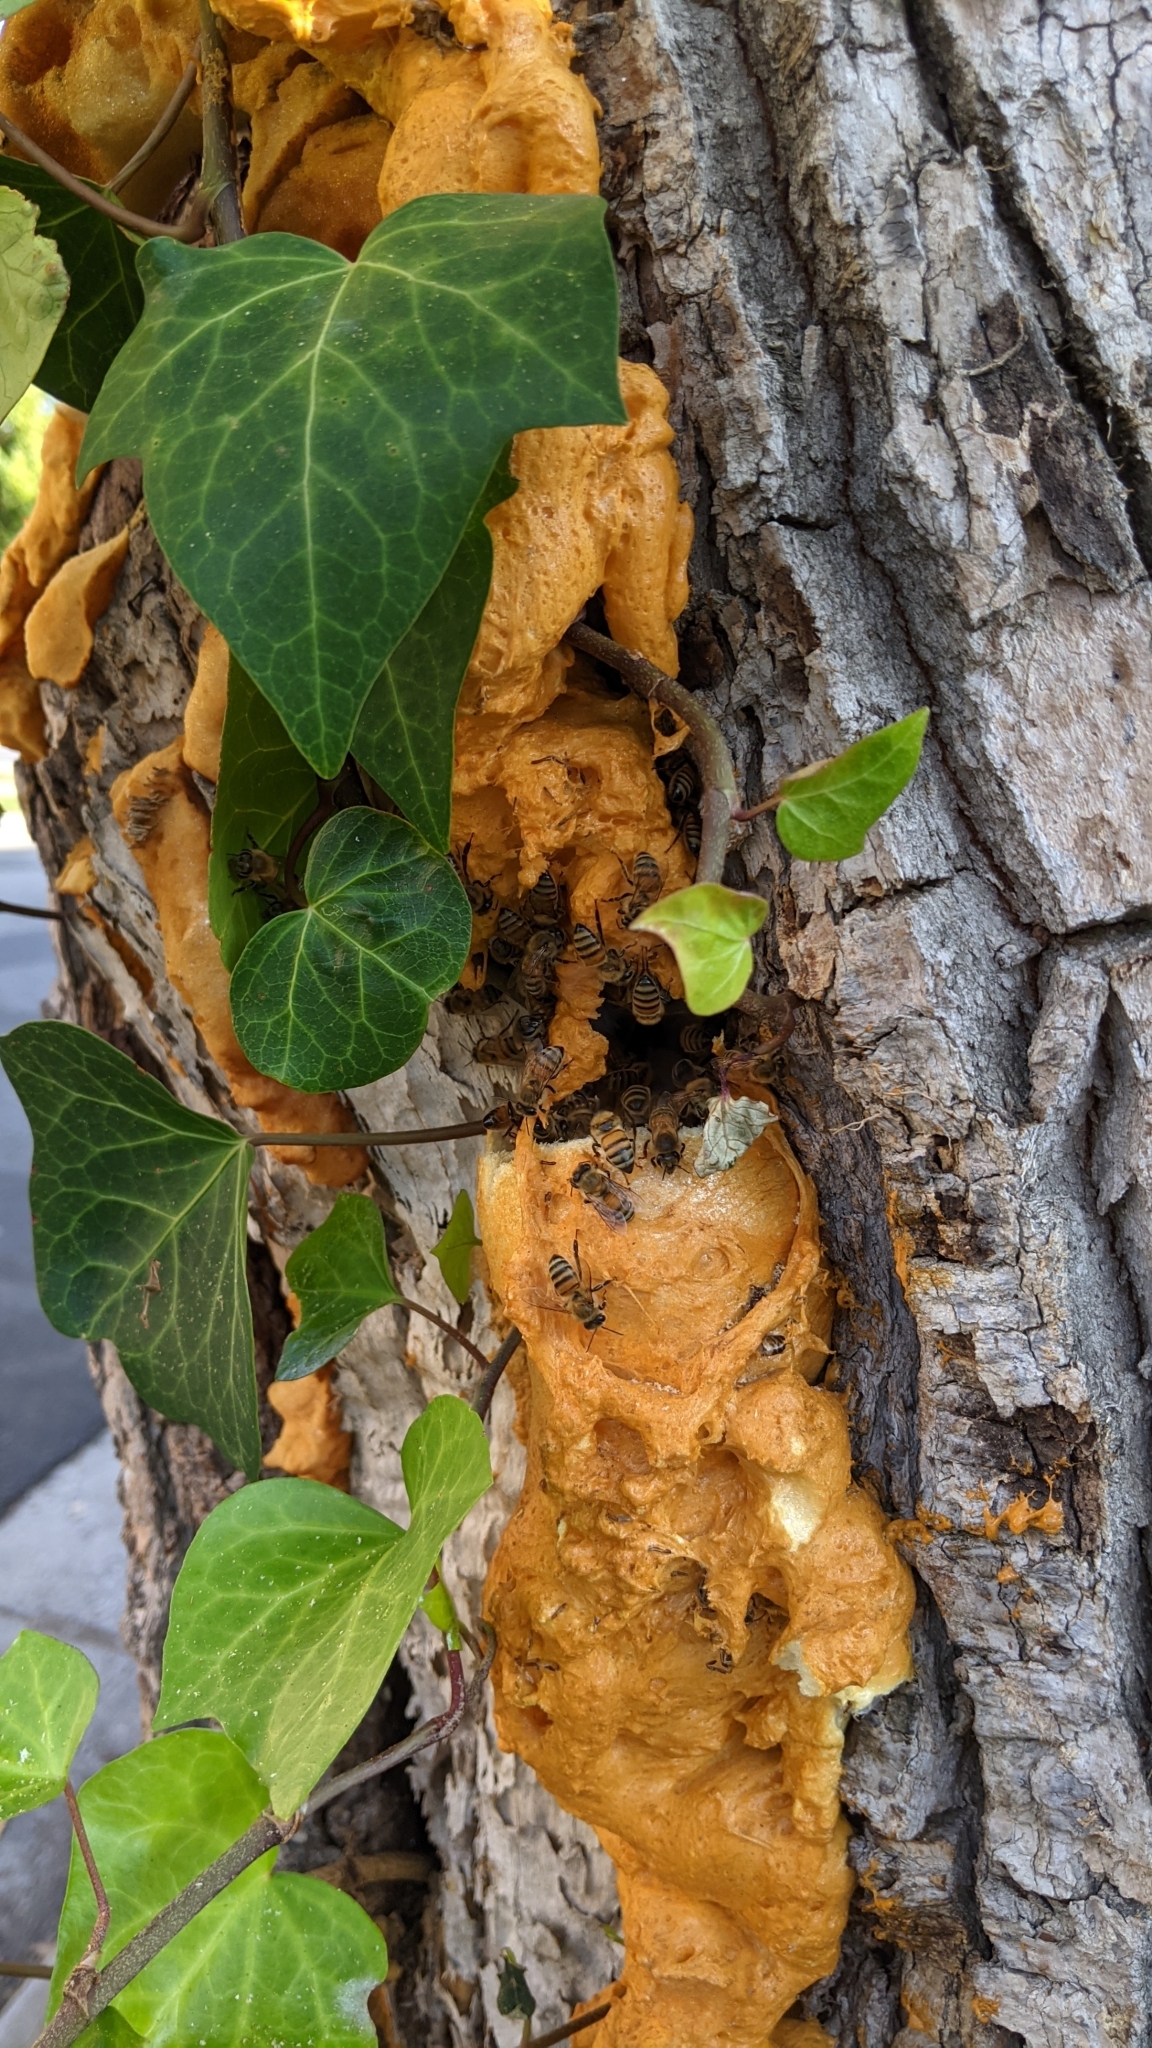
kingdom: Animalia
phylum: Arthropoda
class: Insecta
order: Hymenoptera
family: Apidae
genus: Apis
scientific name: Apis mellifera
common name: Honey bee
